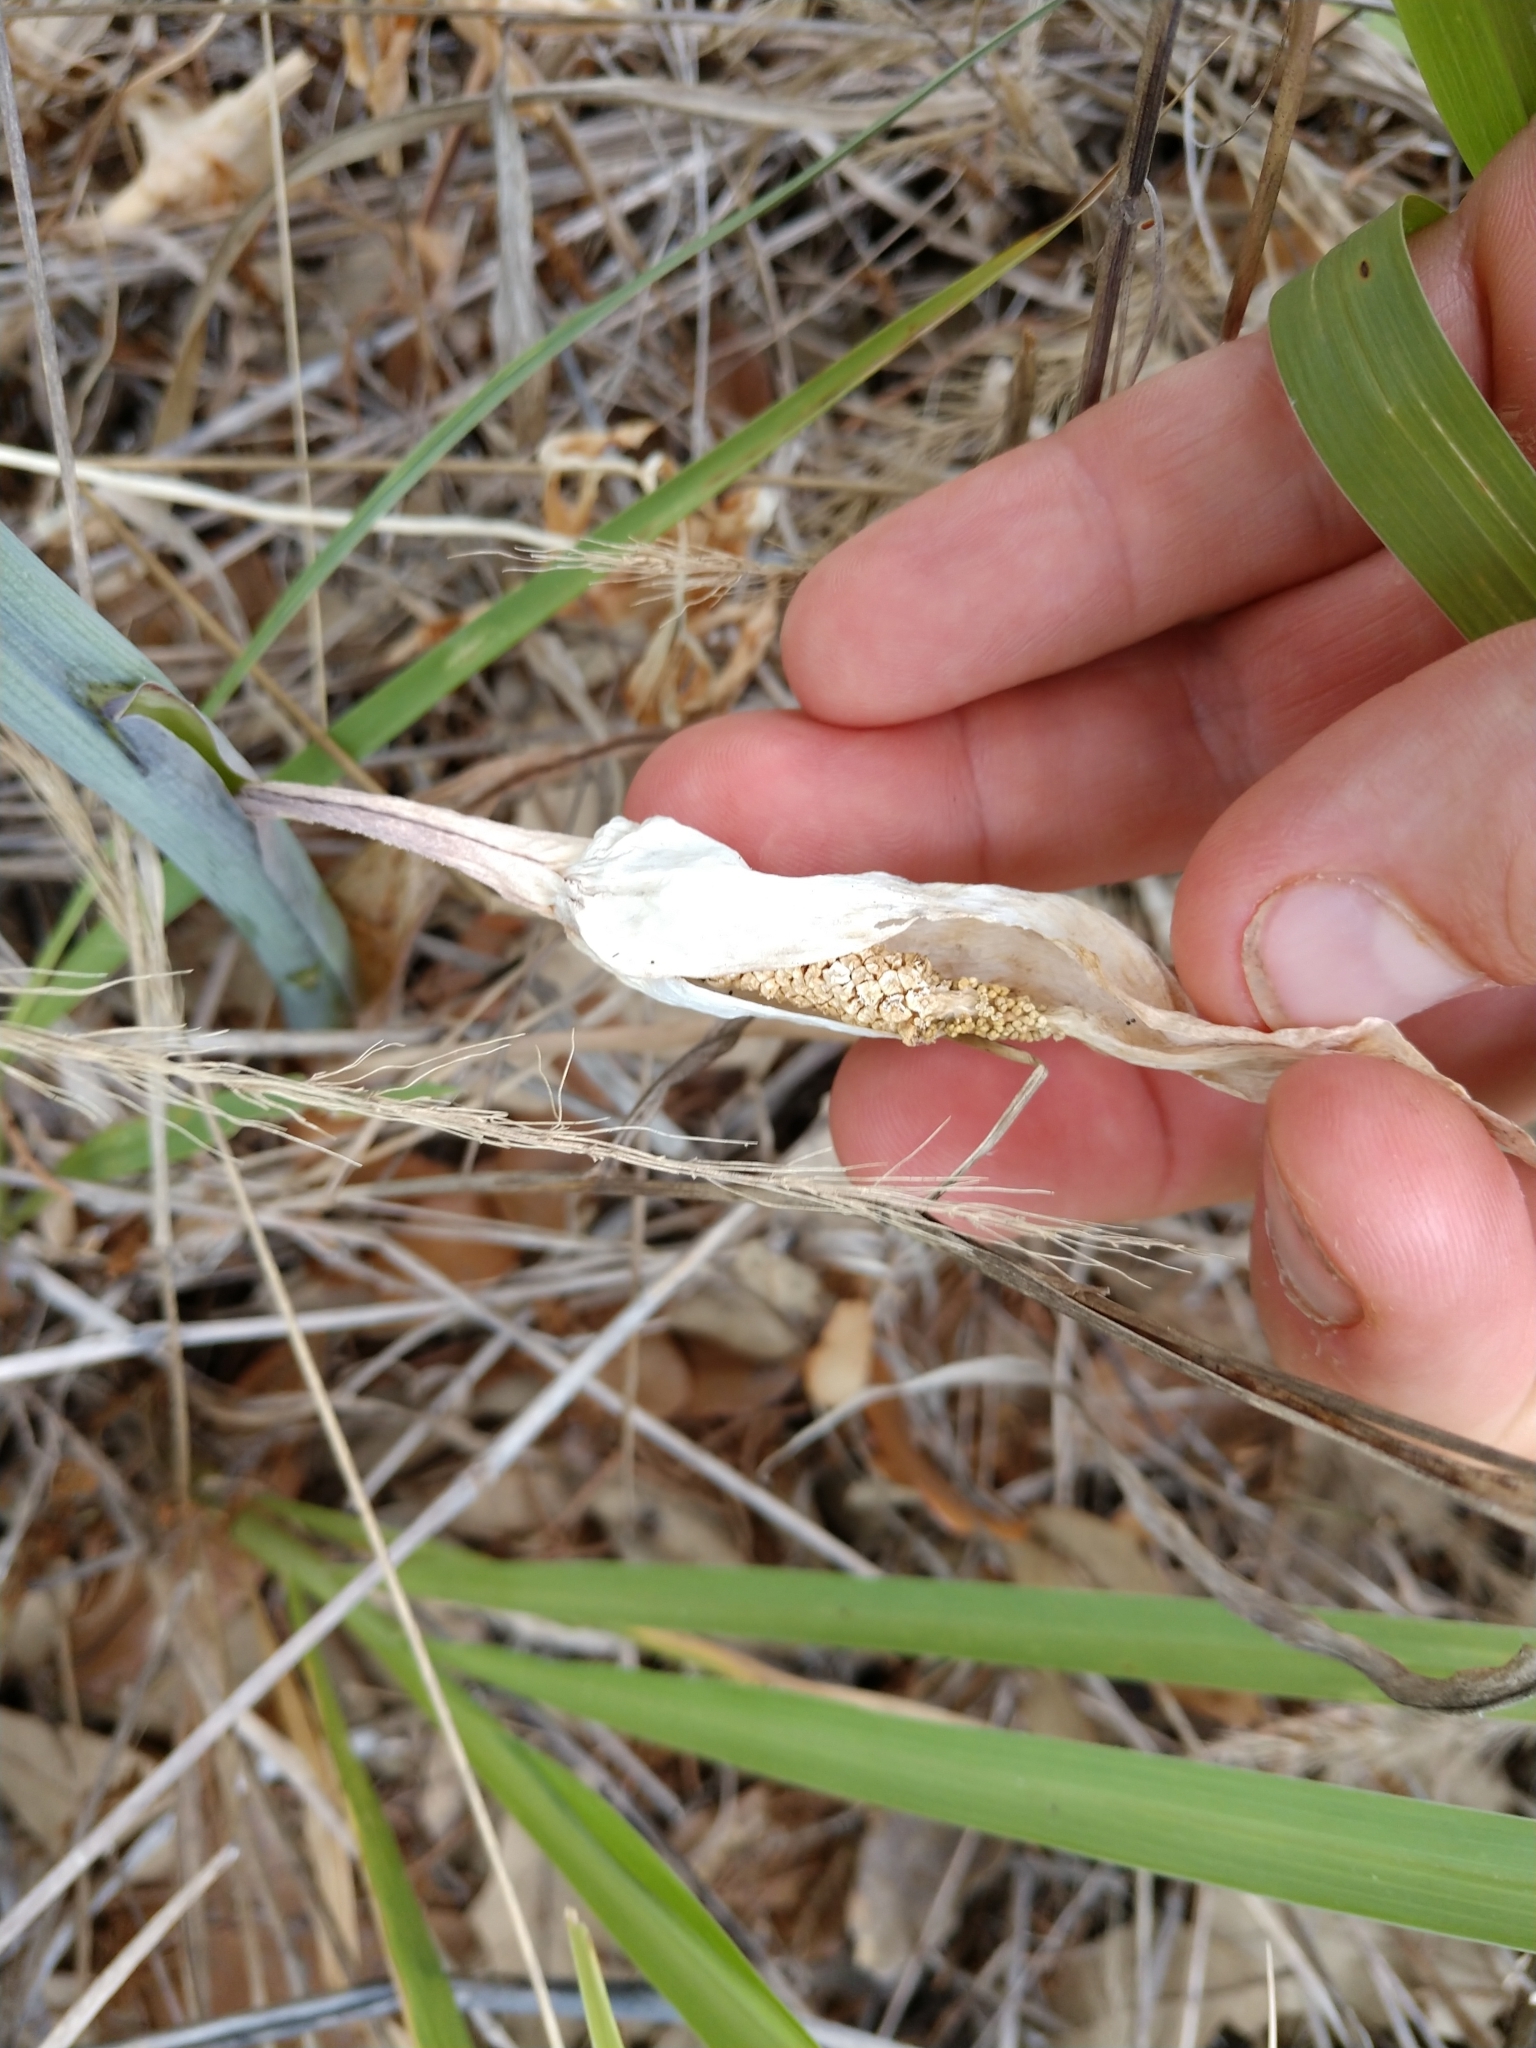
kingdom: Plantae
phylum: Tracheophyta
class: Liliopsida
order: Alismatales
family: Araceae
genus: Arisaema
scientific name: Arisaema dracontium
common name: Dragon-arum
